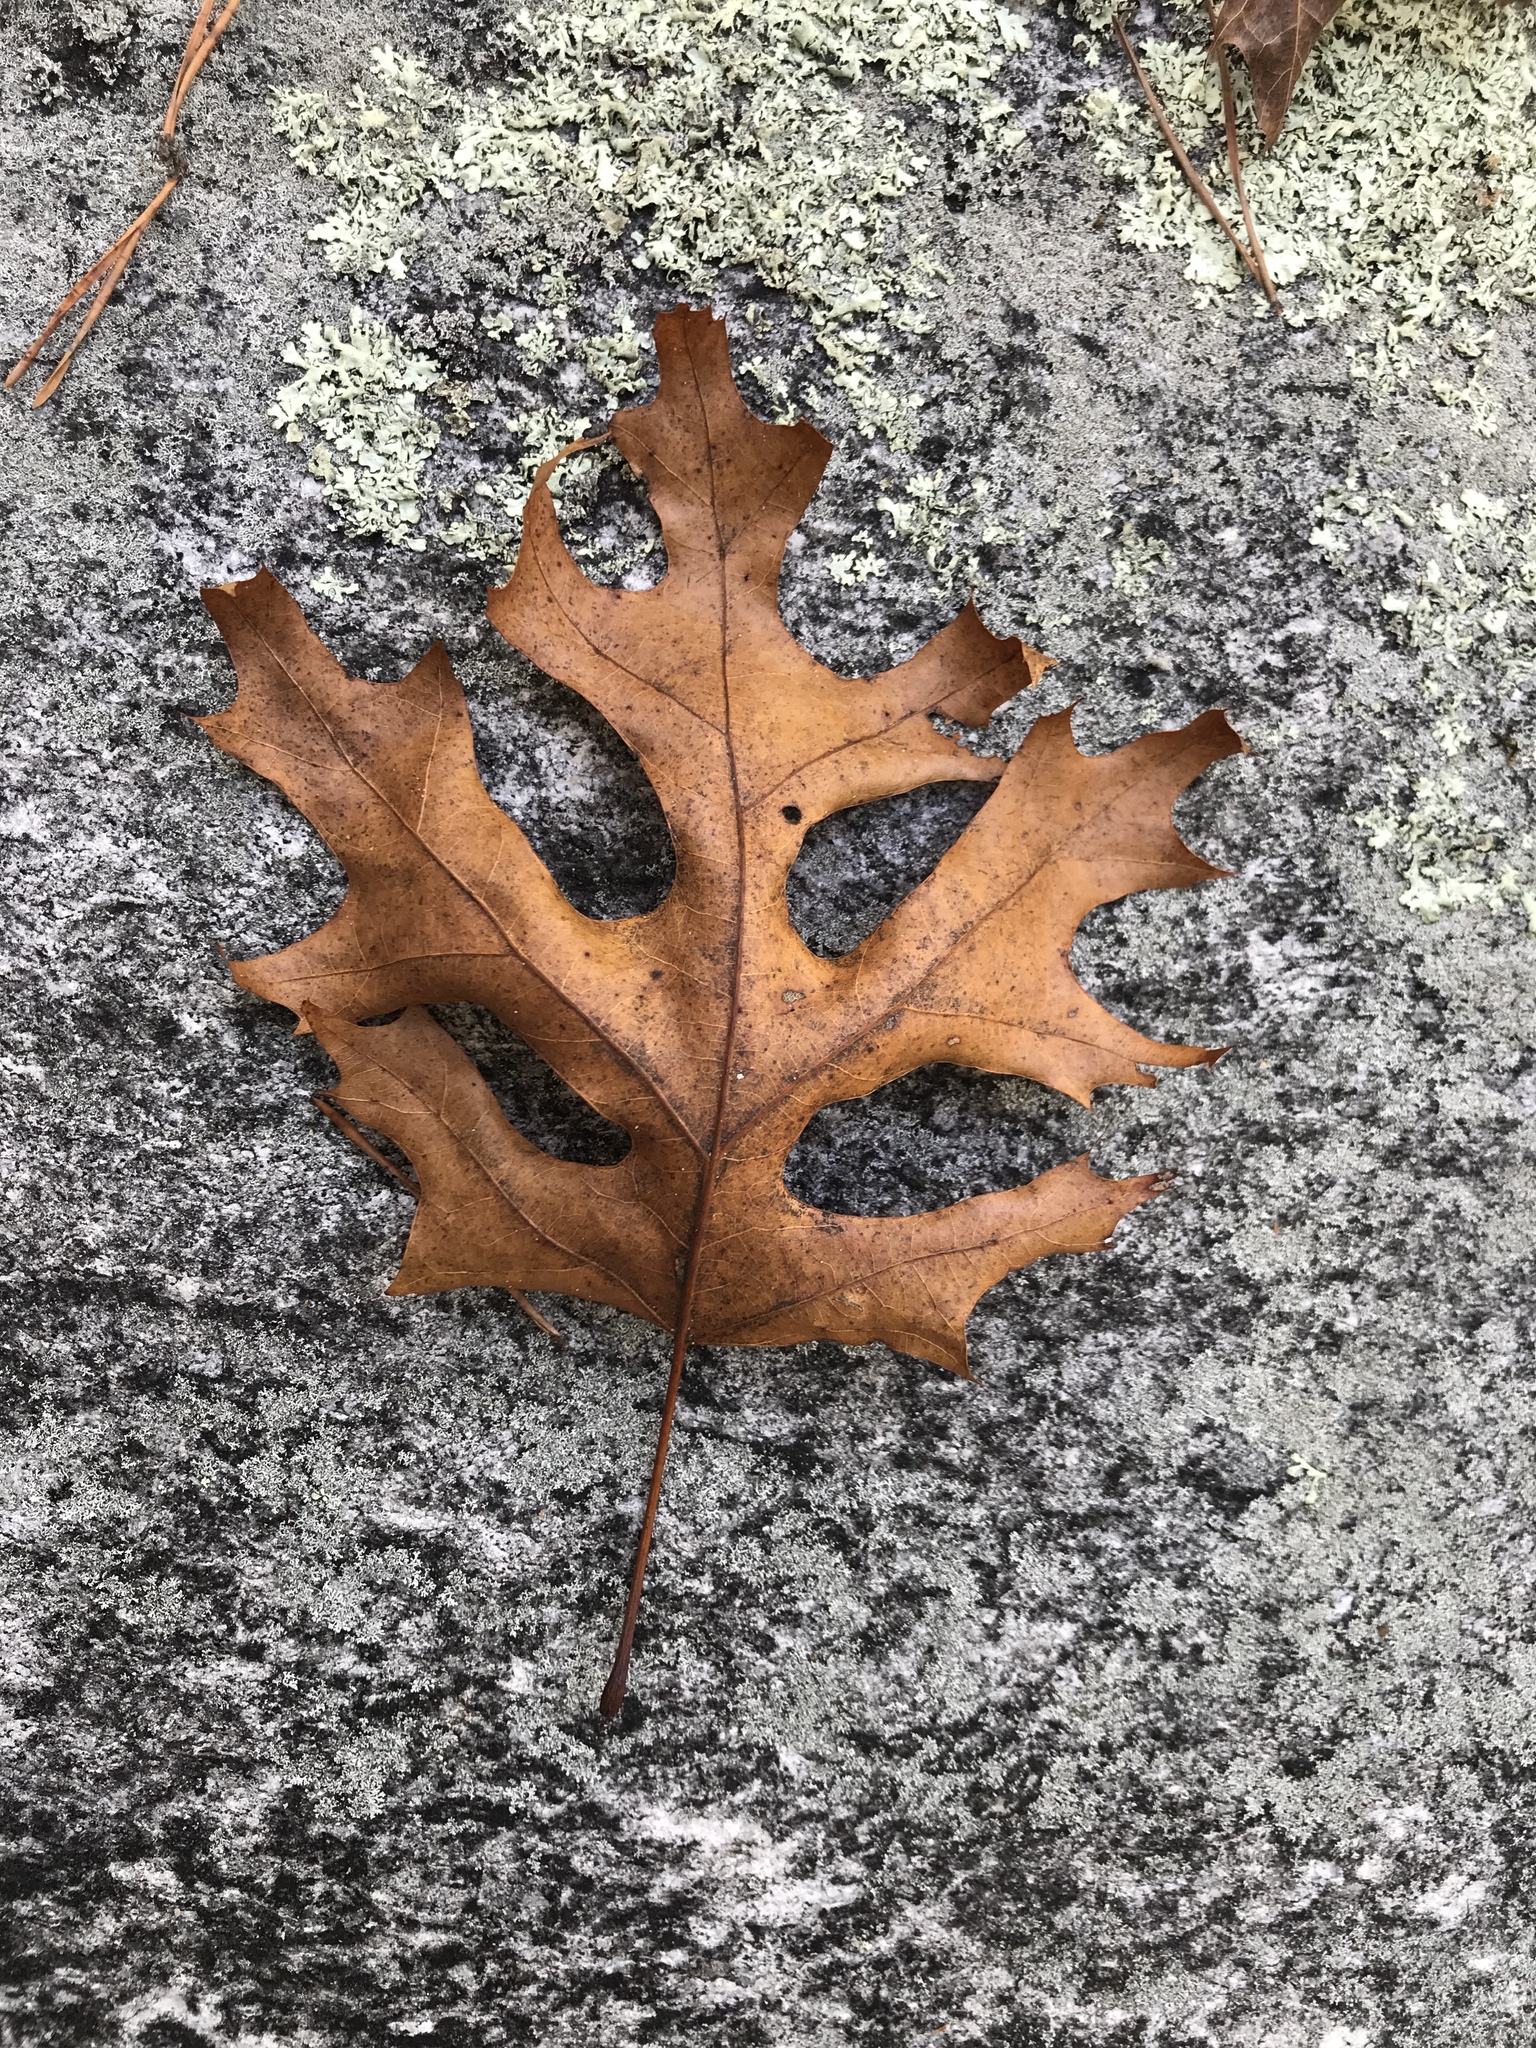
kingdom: Plantae
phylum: Tracheophyta
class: Magnoliopsida
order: Fagales
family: Fagaceae
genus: Quercus
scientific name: Quercus coccinea
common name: Scarlet oak
